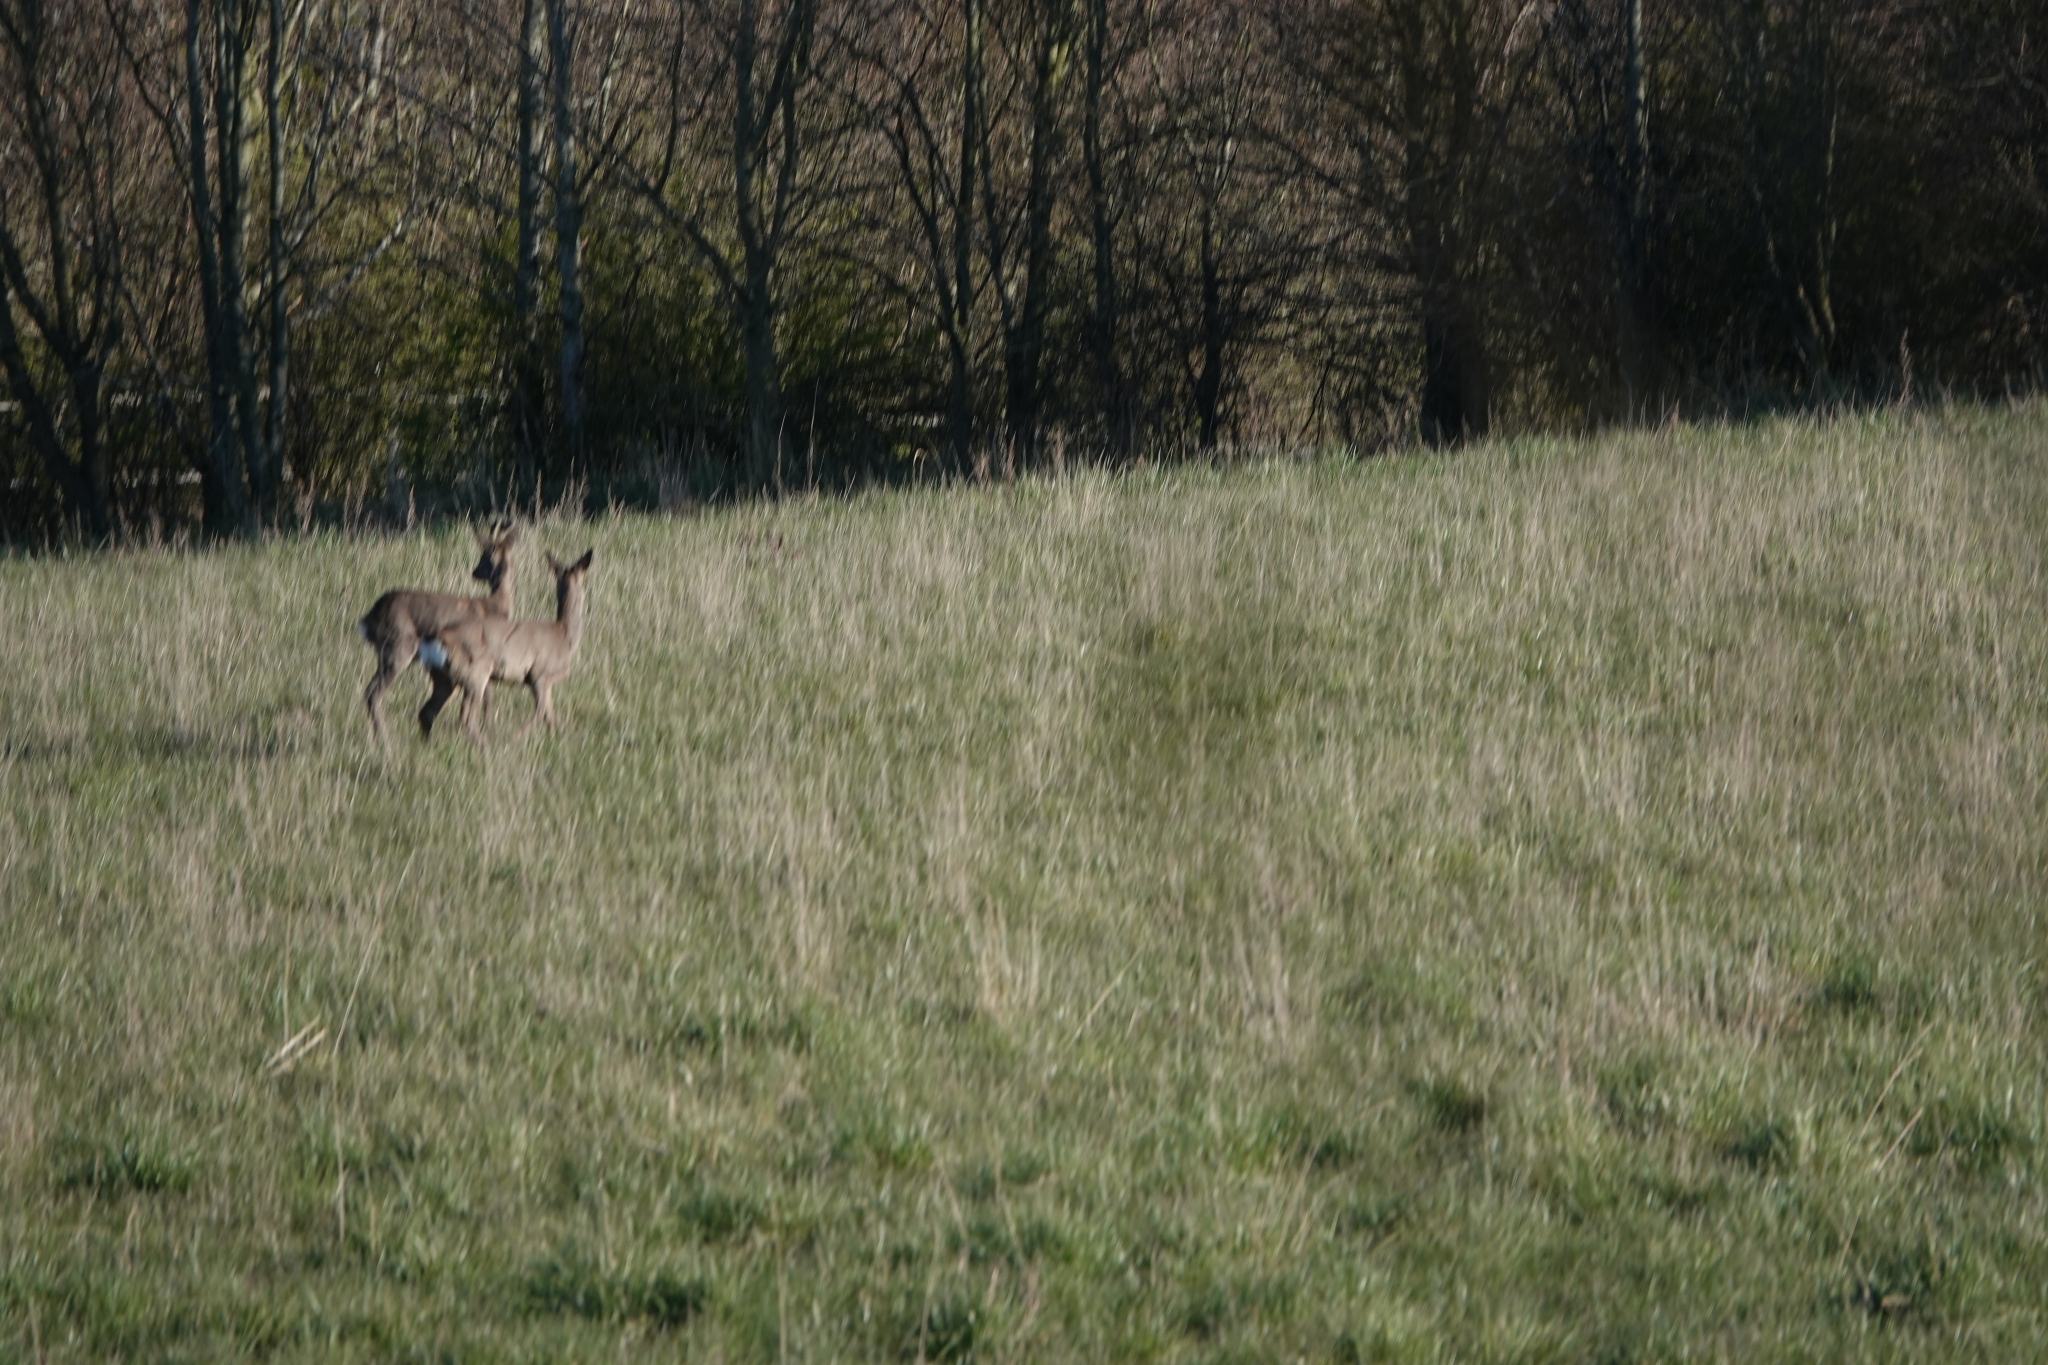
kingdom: Animalia
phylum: Chordata
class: Mammalia
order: Artiodactyla
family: Cervidae
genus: Capreolus
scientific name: Capreolus capreolus
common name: Western roe deer
